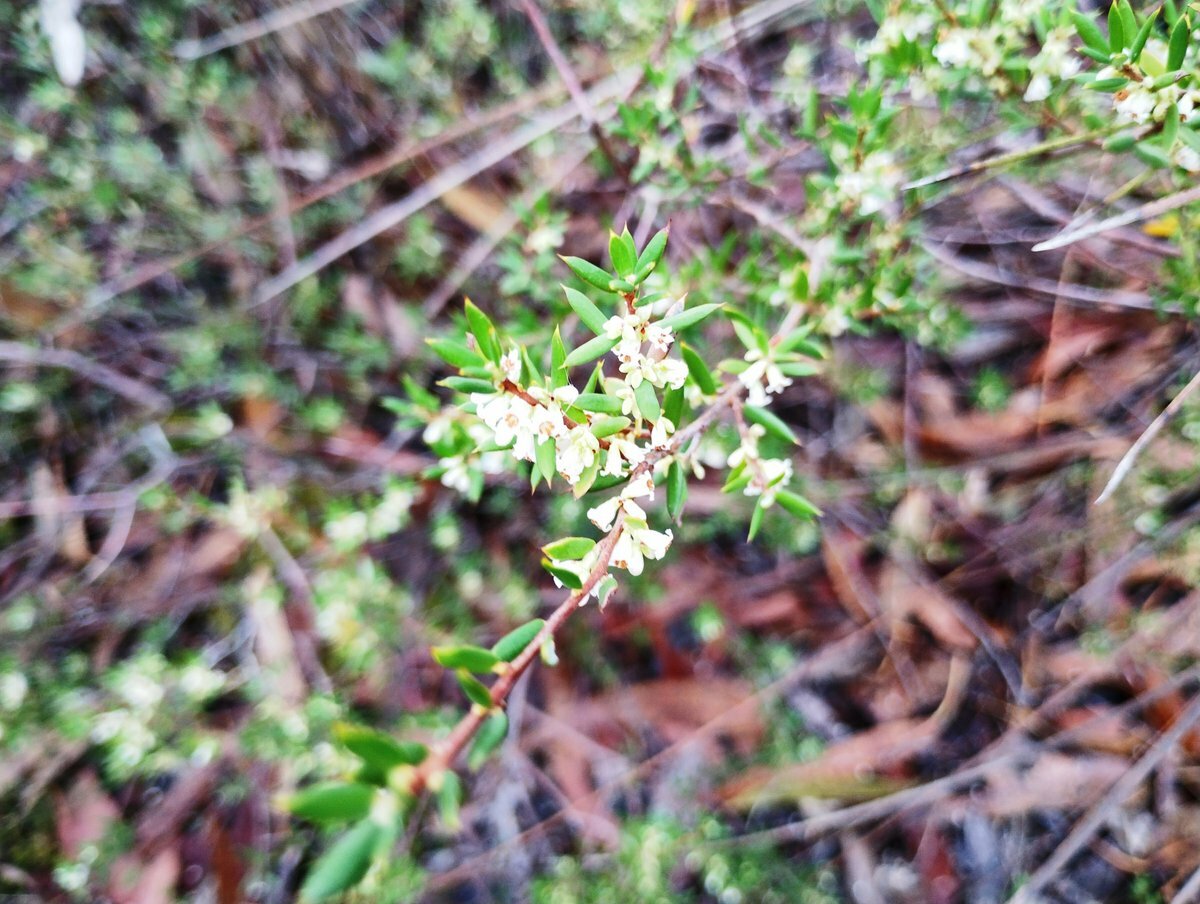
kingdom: Plantae
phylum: Tracheophyta
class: Magnoliopsida
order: Ericales
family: Ericaceae
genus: Monotoca
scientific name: Monotoca scoparia
